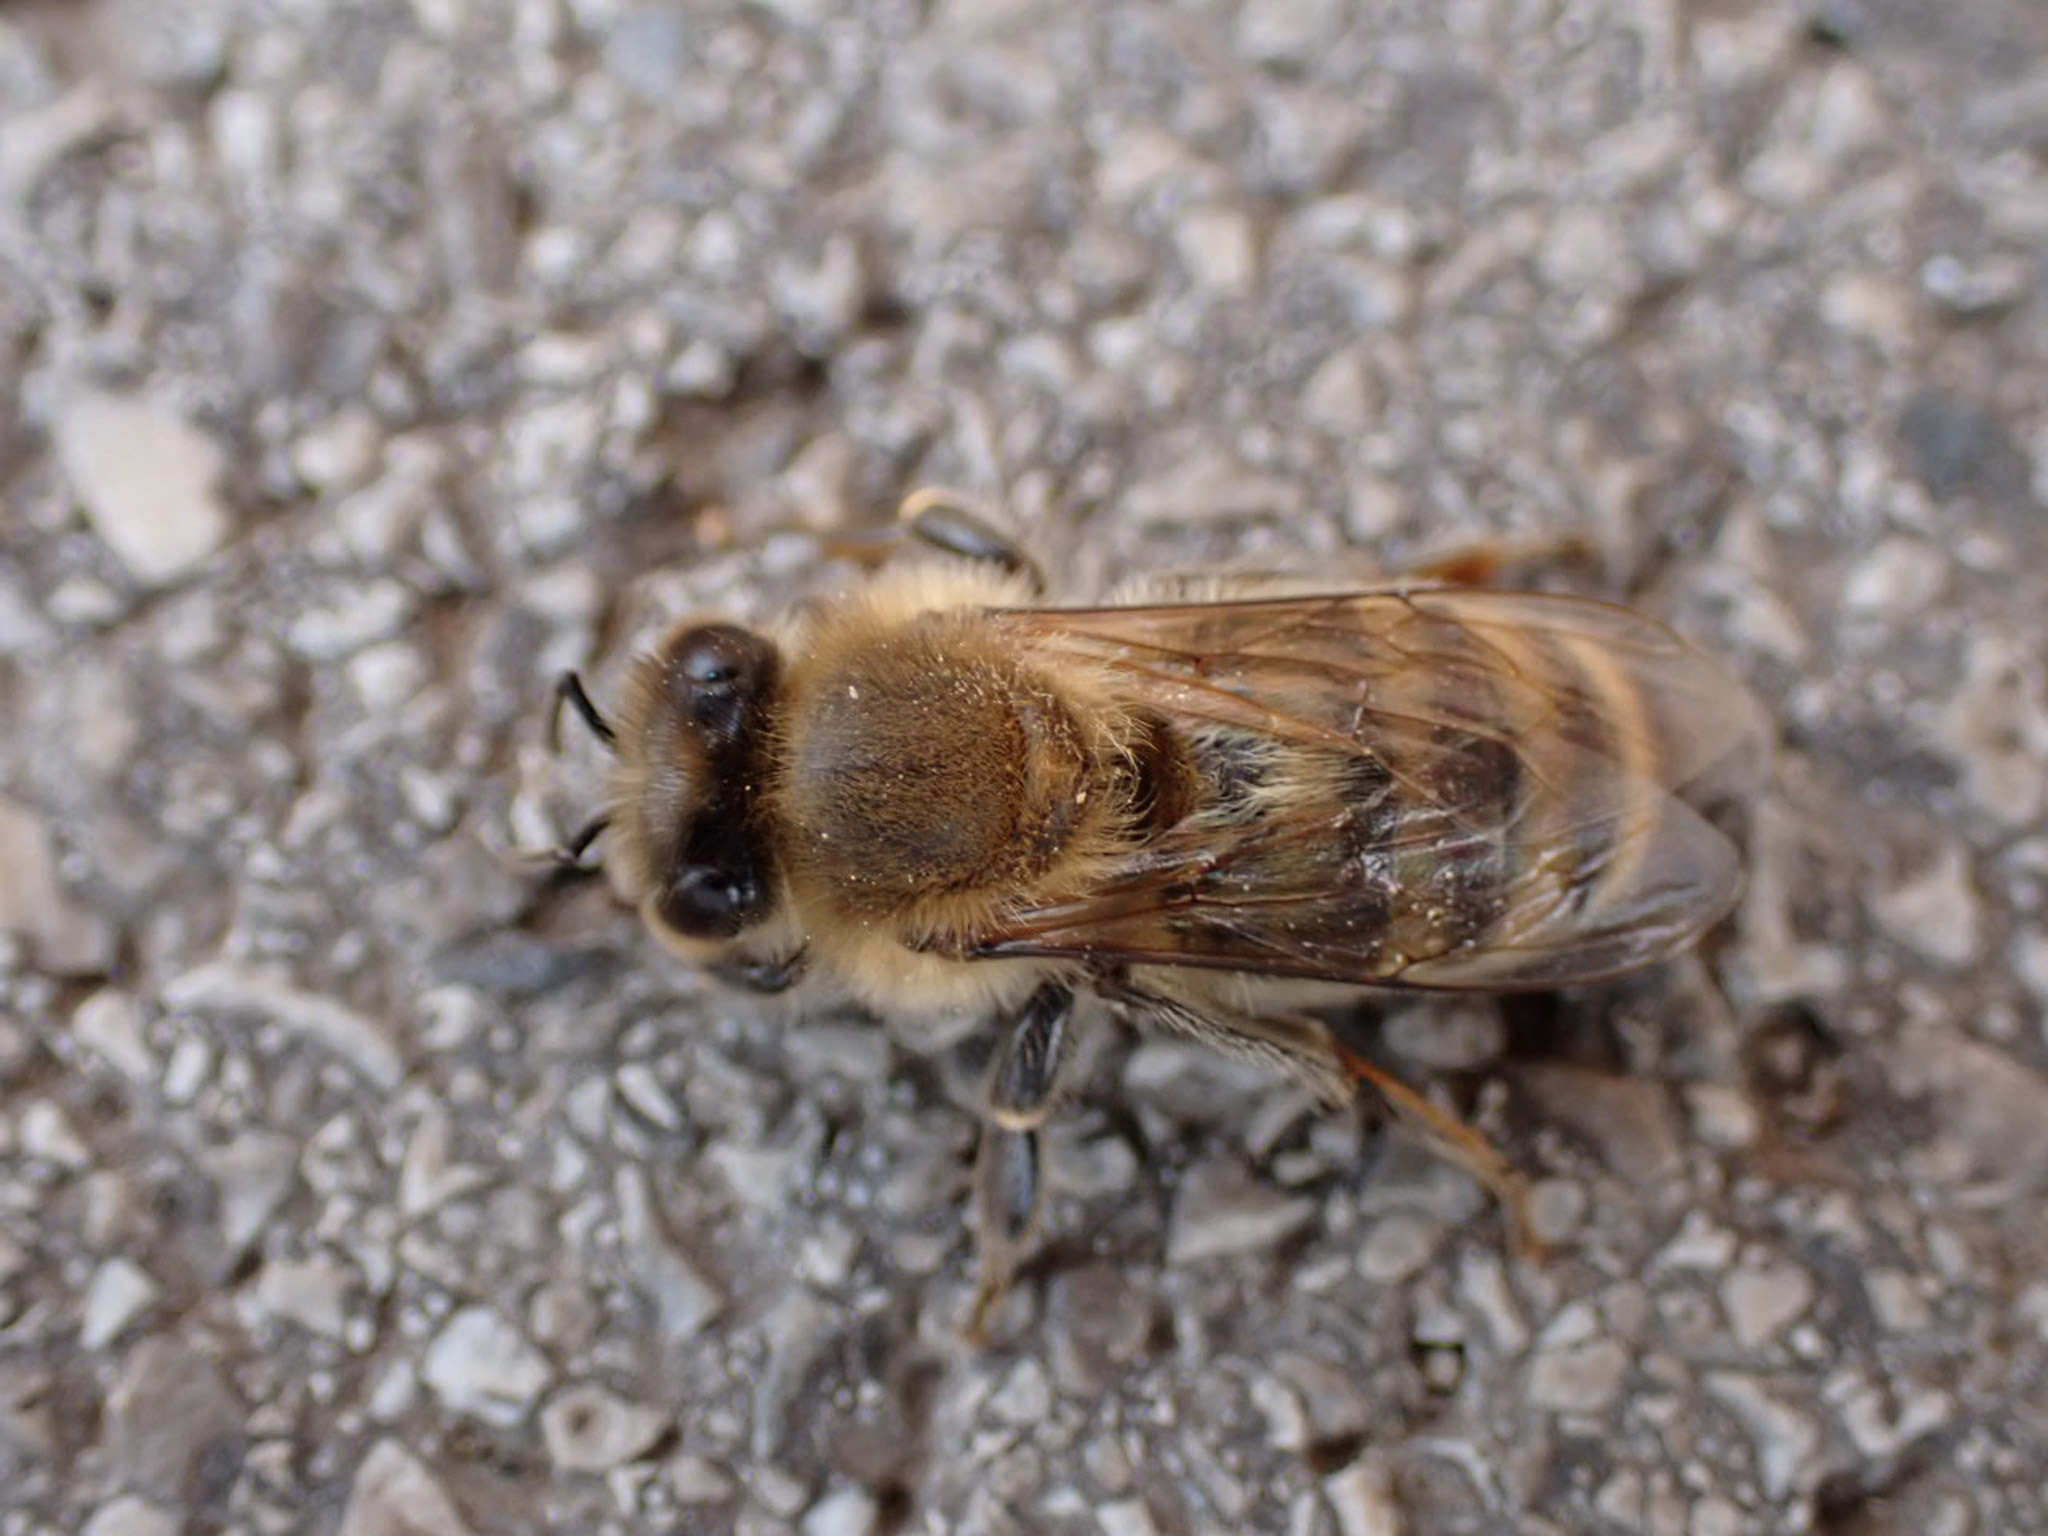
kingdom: Animalia
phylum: Arthropoda
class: Insecta
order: Hymenoptera
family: Apidae
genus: Apis
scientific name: Apis mellifera
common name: Honey bee
